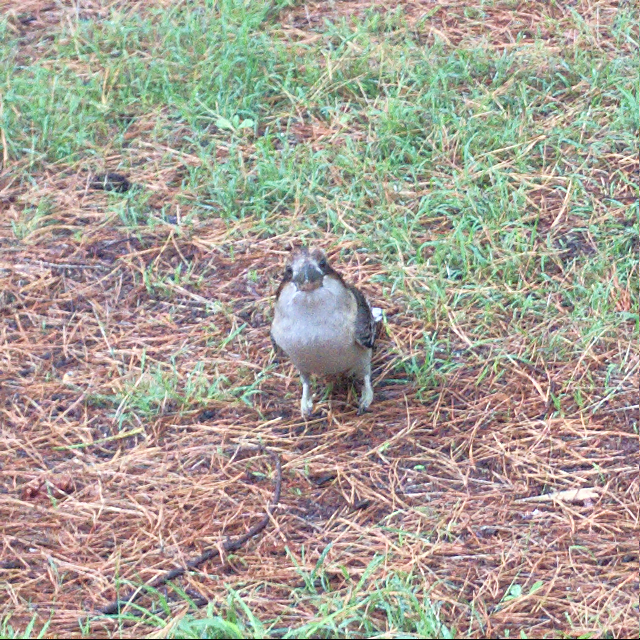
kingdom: Animalia
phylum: Chordata
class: Aves
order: Coraciiformes
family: Alcedinidae
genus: Dacelo
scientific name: Dacelo novaeguineae
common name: Laughing kookaburra
